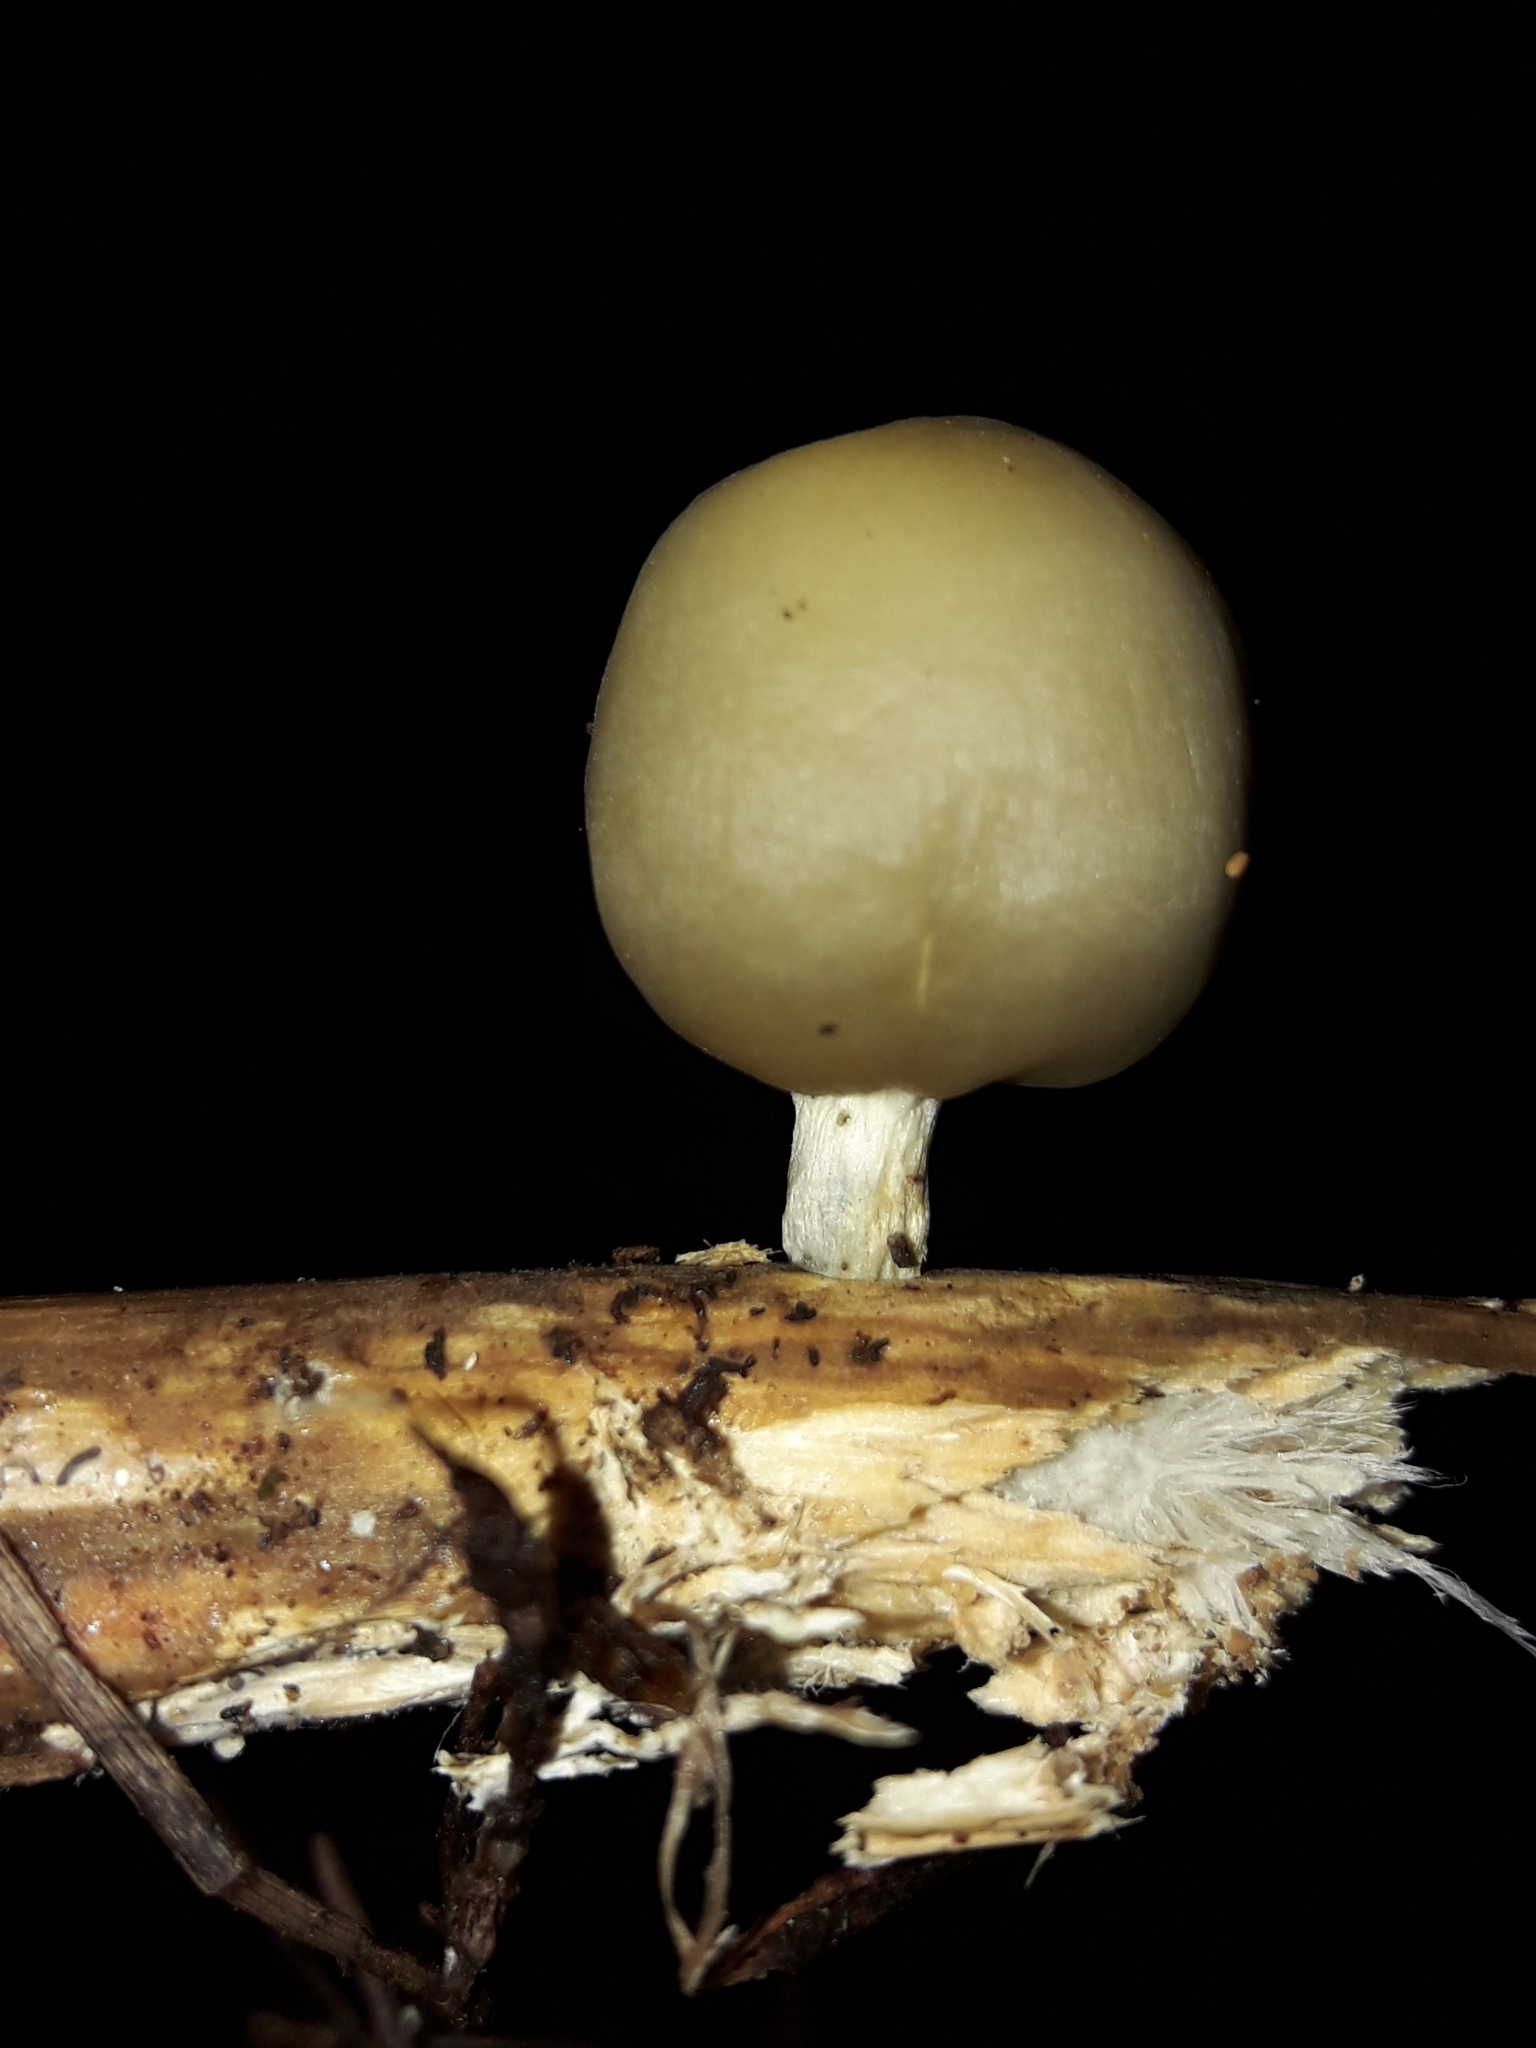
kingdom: Fungi
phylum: Basidiomycota
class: Agaricomycetes
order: Agaricales
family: Hymenogastraceae
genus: Psilocybe
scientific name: Psilocybe weraroa
